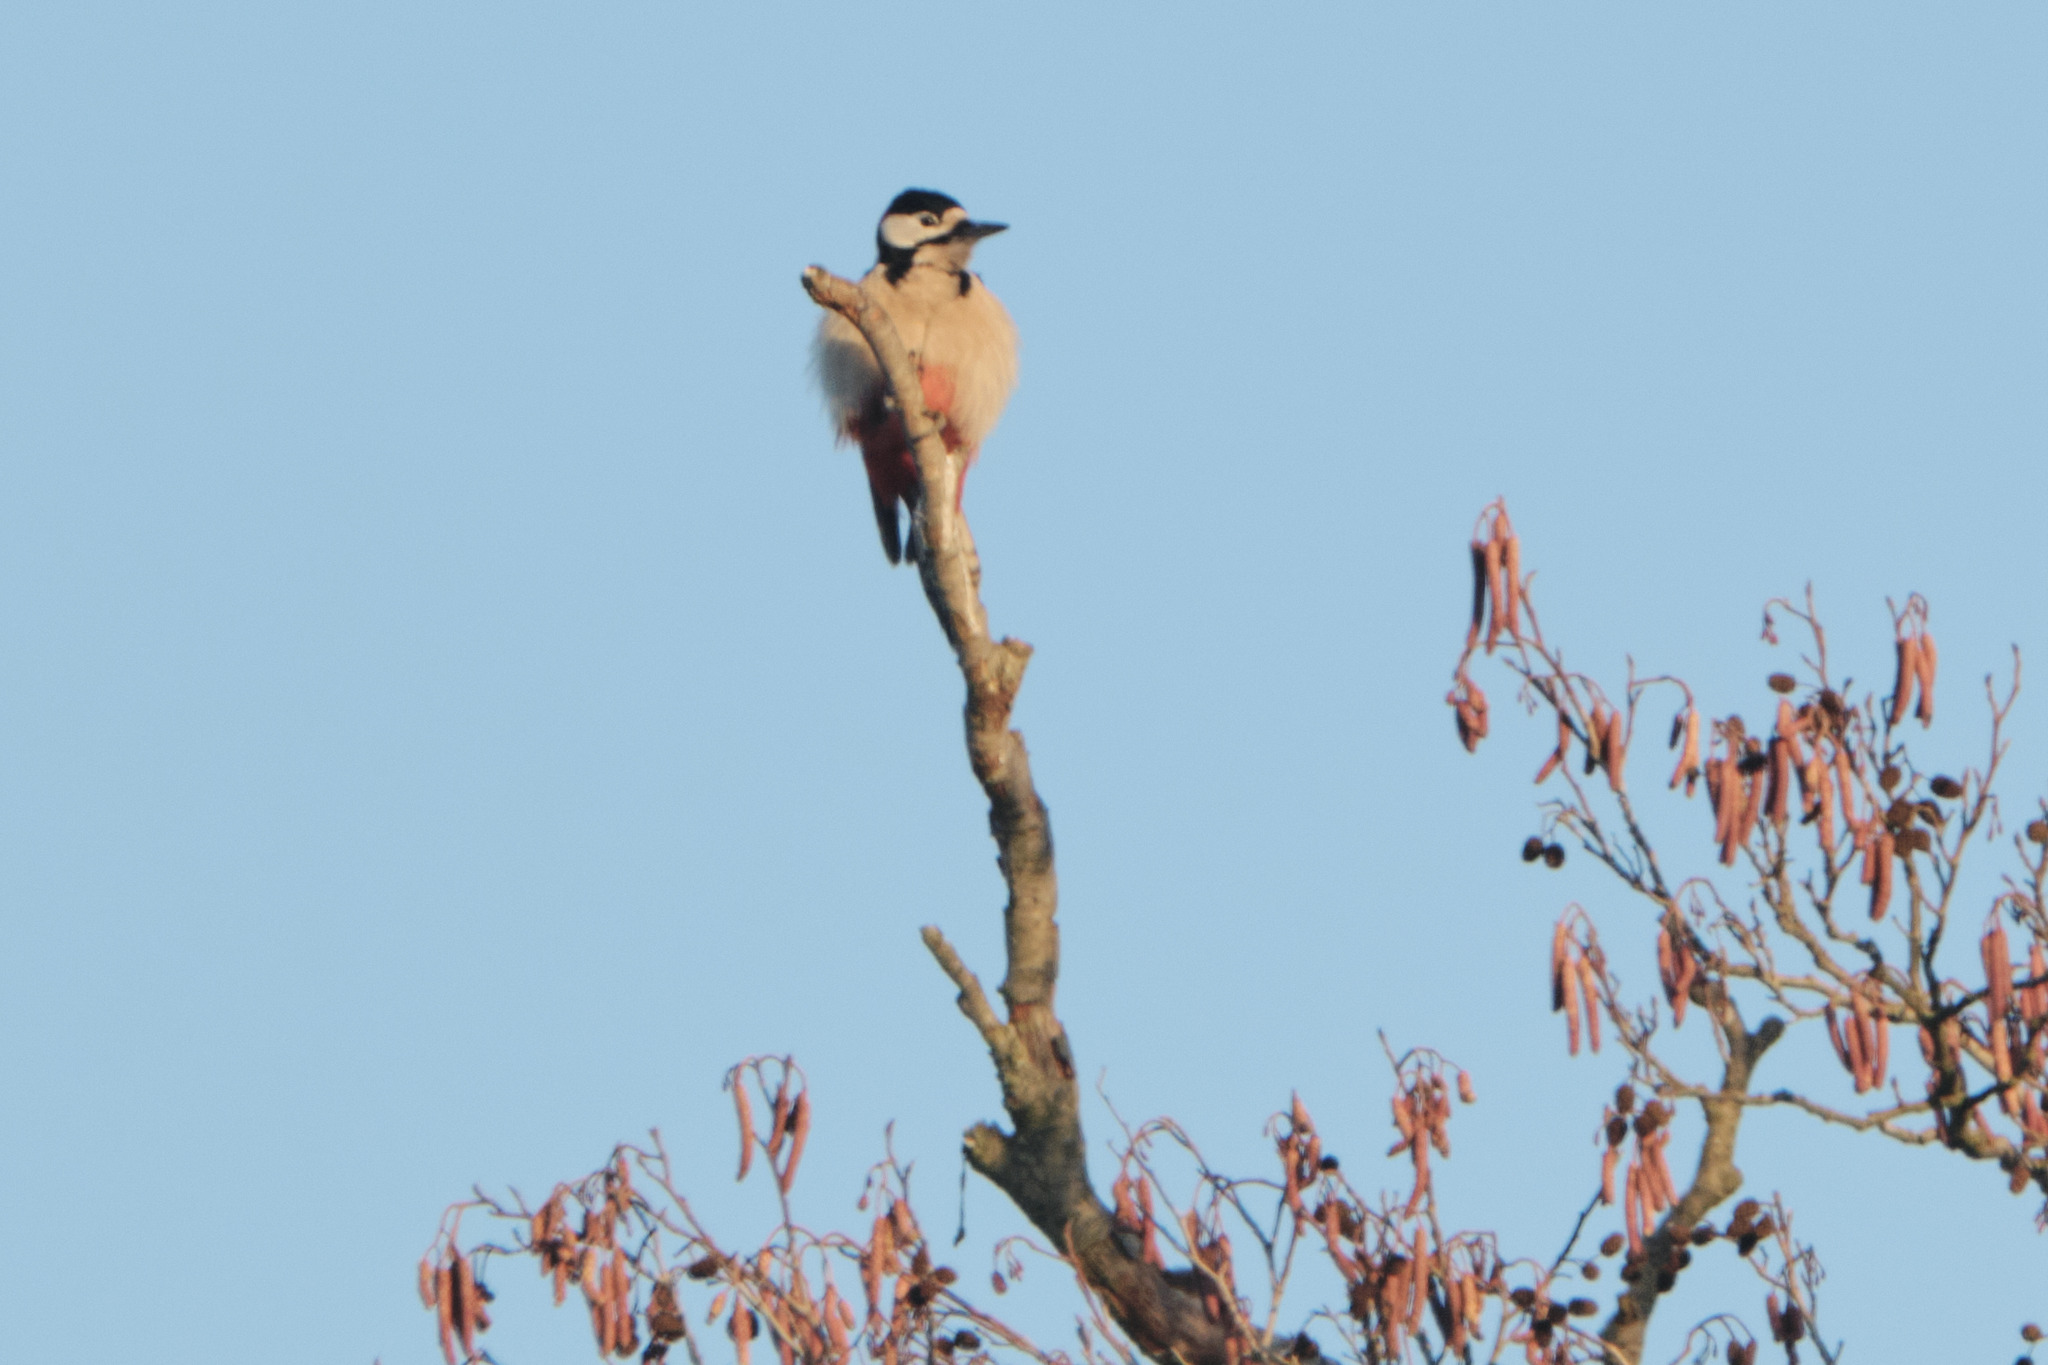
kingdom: Animalia
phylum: Chordata
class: Aves
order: Piciformes
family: Picidae
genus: Dendrocopos
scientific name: Dendrocopos major
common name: Great spotted woodpecker
